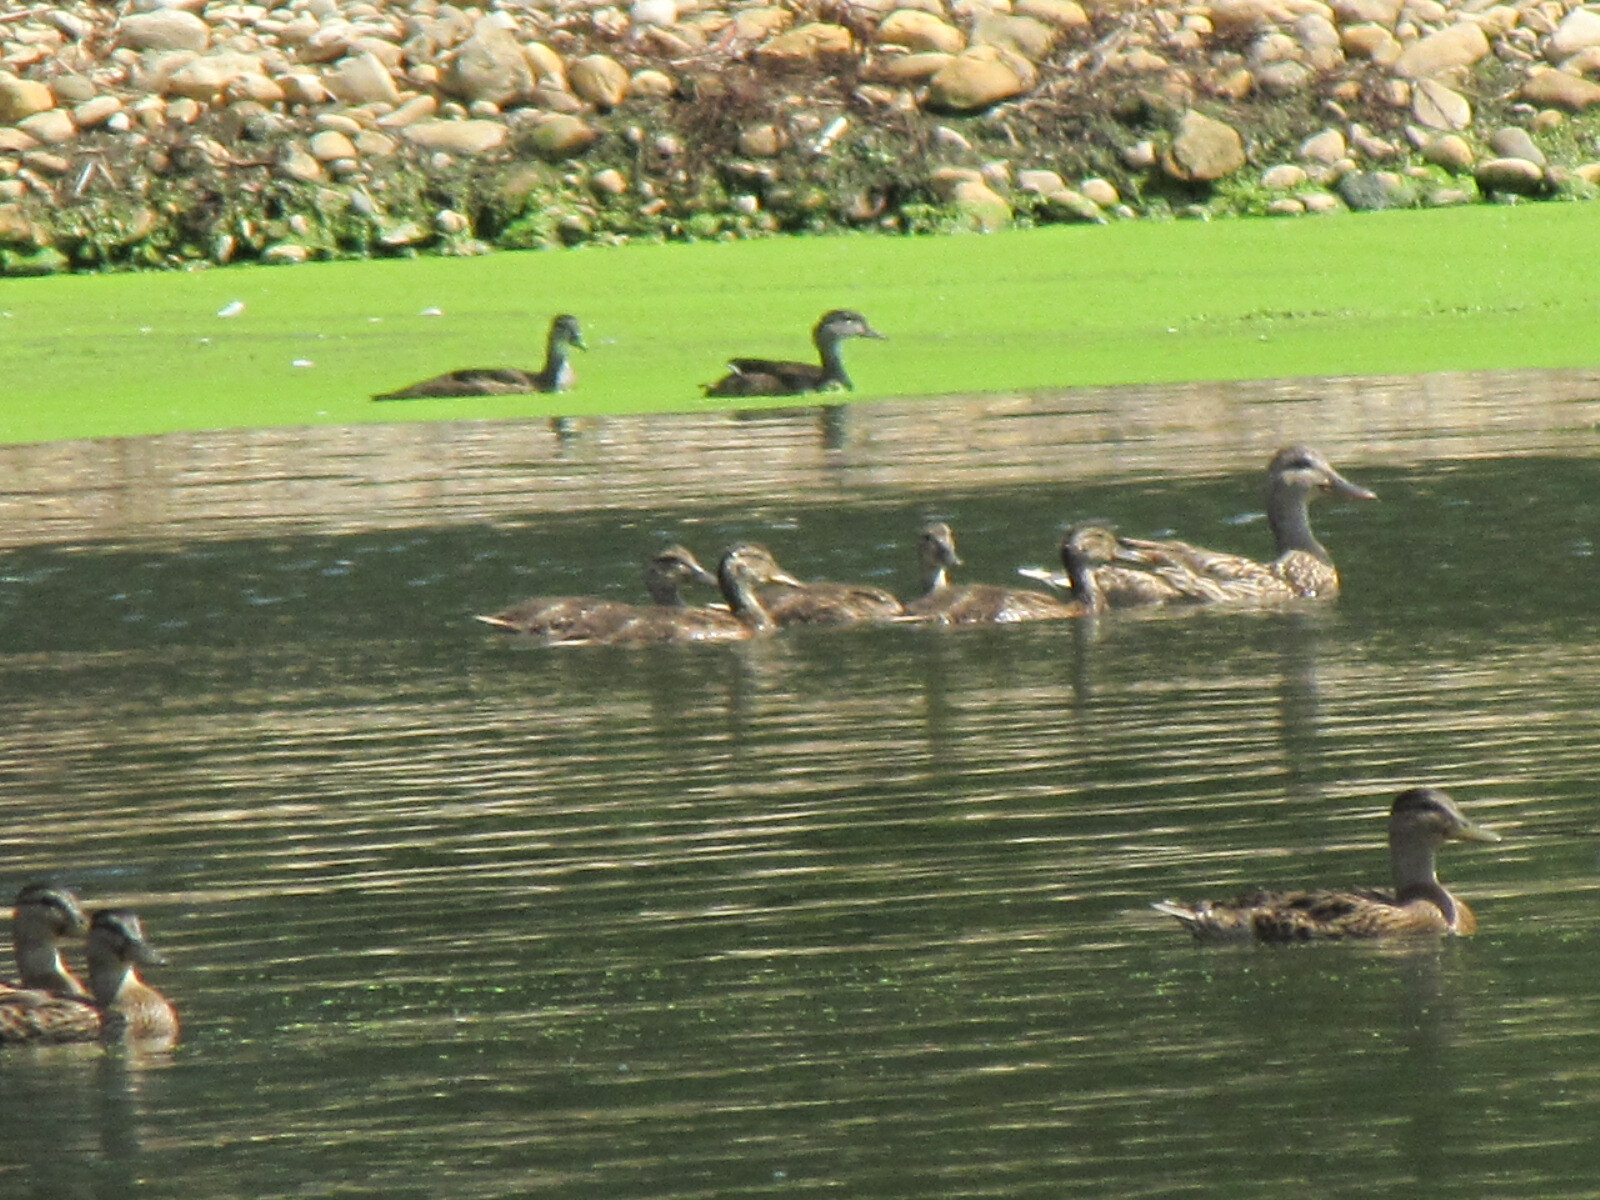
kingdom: Animalia
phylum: Chordata
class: Aves
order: Anseriformes
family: Anatidae
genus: Anas
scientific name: Anas platyrhynchos
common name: Mallard
